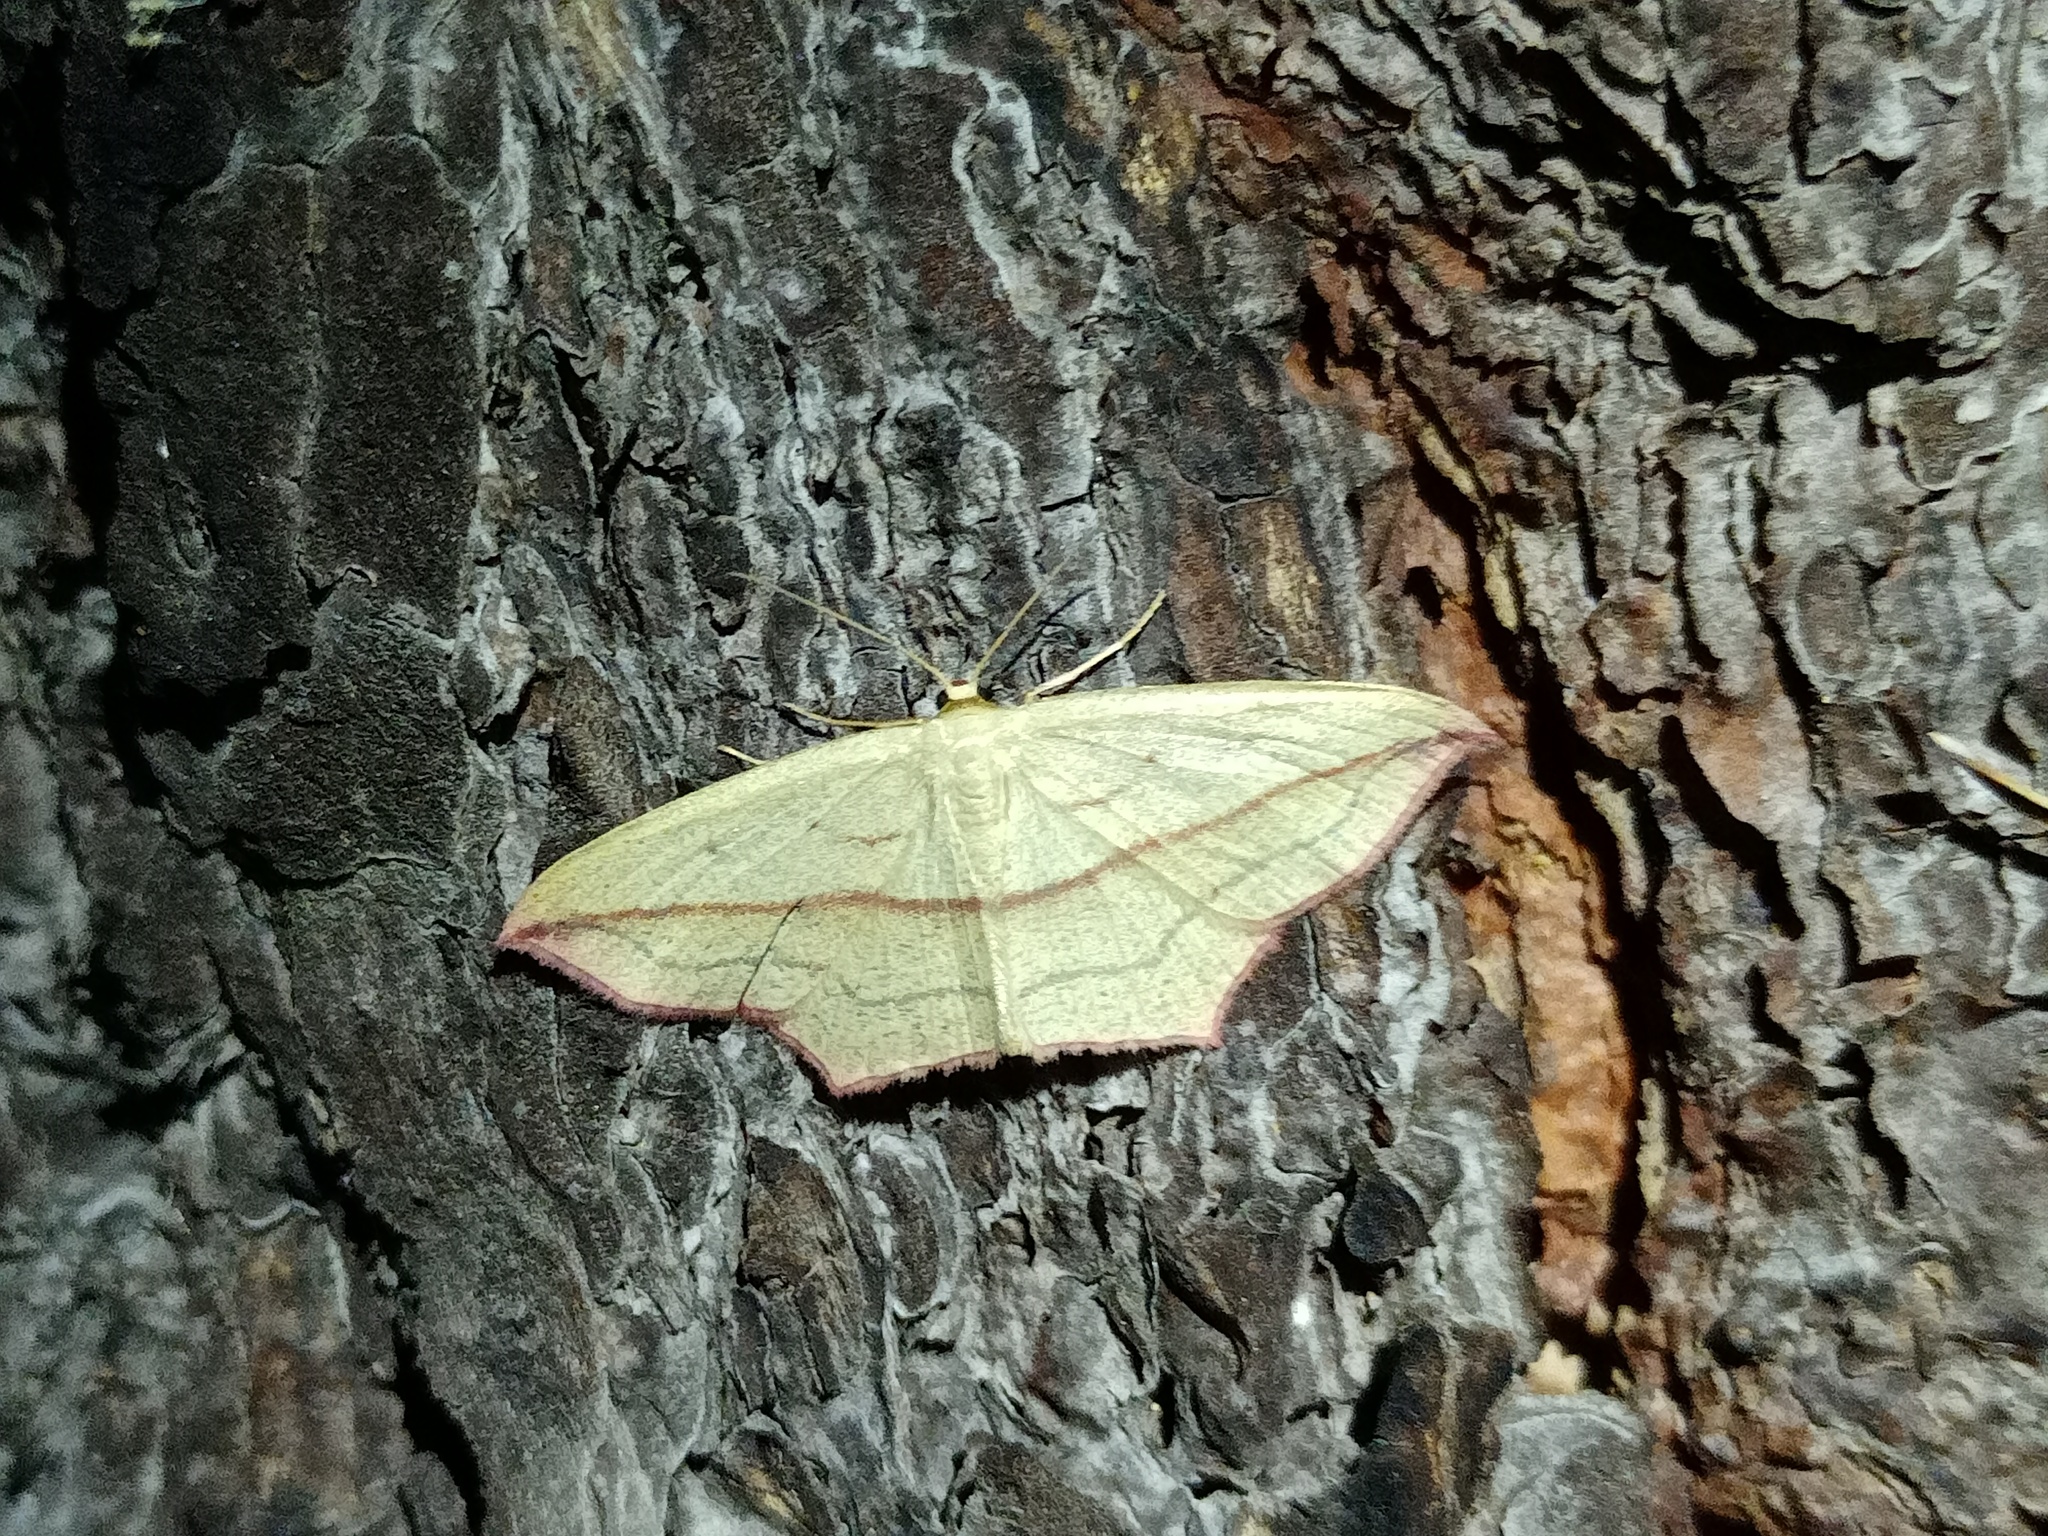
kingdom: Animalia
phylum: Arthropoda
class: Insecta
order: Lepidoptera
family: Geometridae
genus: Timandra
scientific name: Timandra comae
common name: Blood-vein
